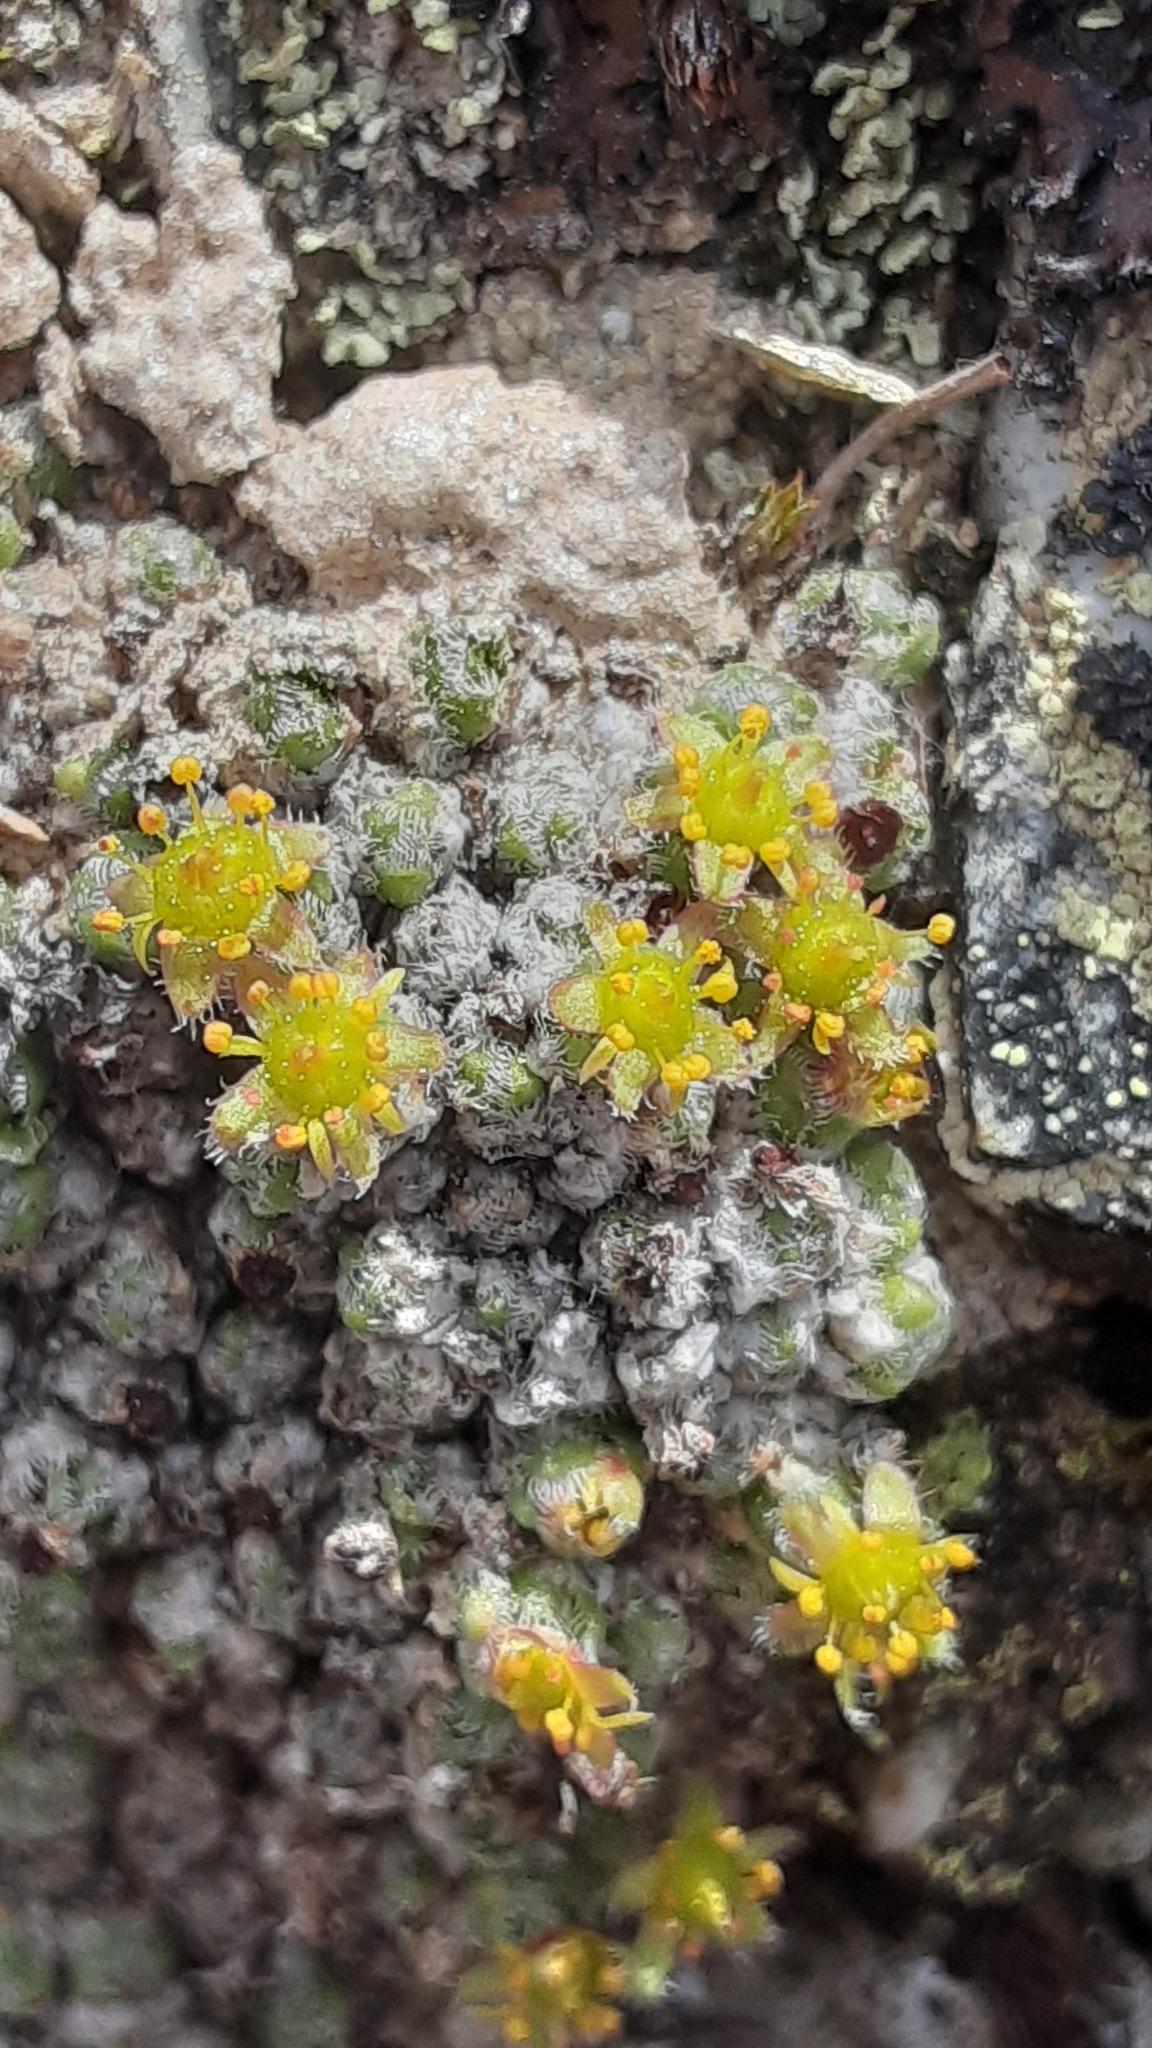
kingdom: Plantae
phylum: Tracheophyta
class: Magnoliopsida
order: Saxifragales
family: Saxifragaceae
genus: Saxifraga
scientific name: Saxifraga eschscholtzii
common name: Eschscholtz's saxifrage
